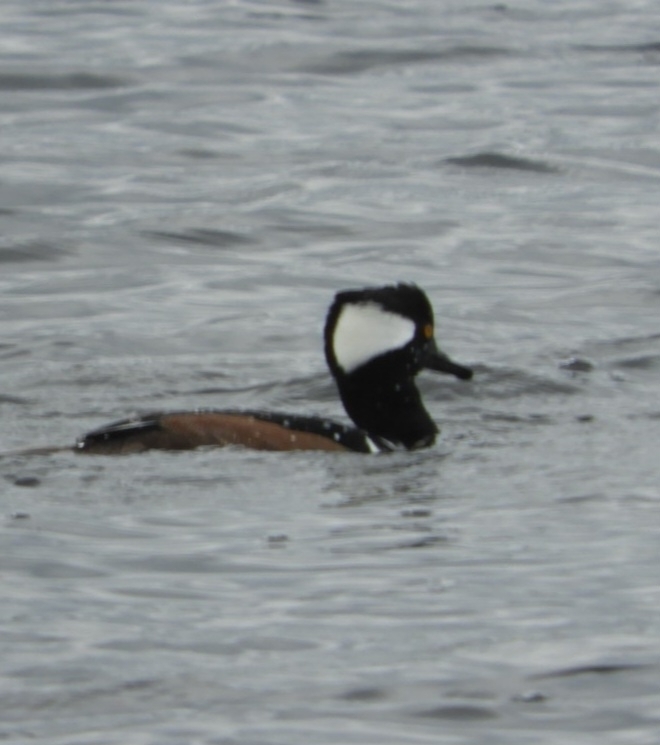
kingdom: Animalia
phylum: Chordata
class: Aves
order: Anseriformes
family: Anatidae
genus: Lophodytes
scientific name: Lophodytes cucullatus
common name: Hooded merganser
